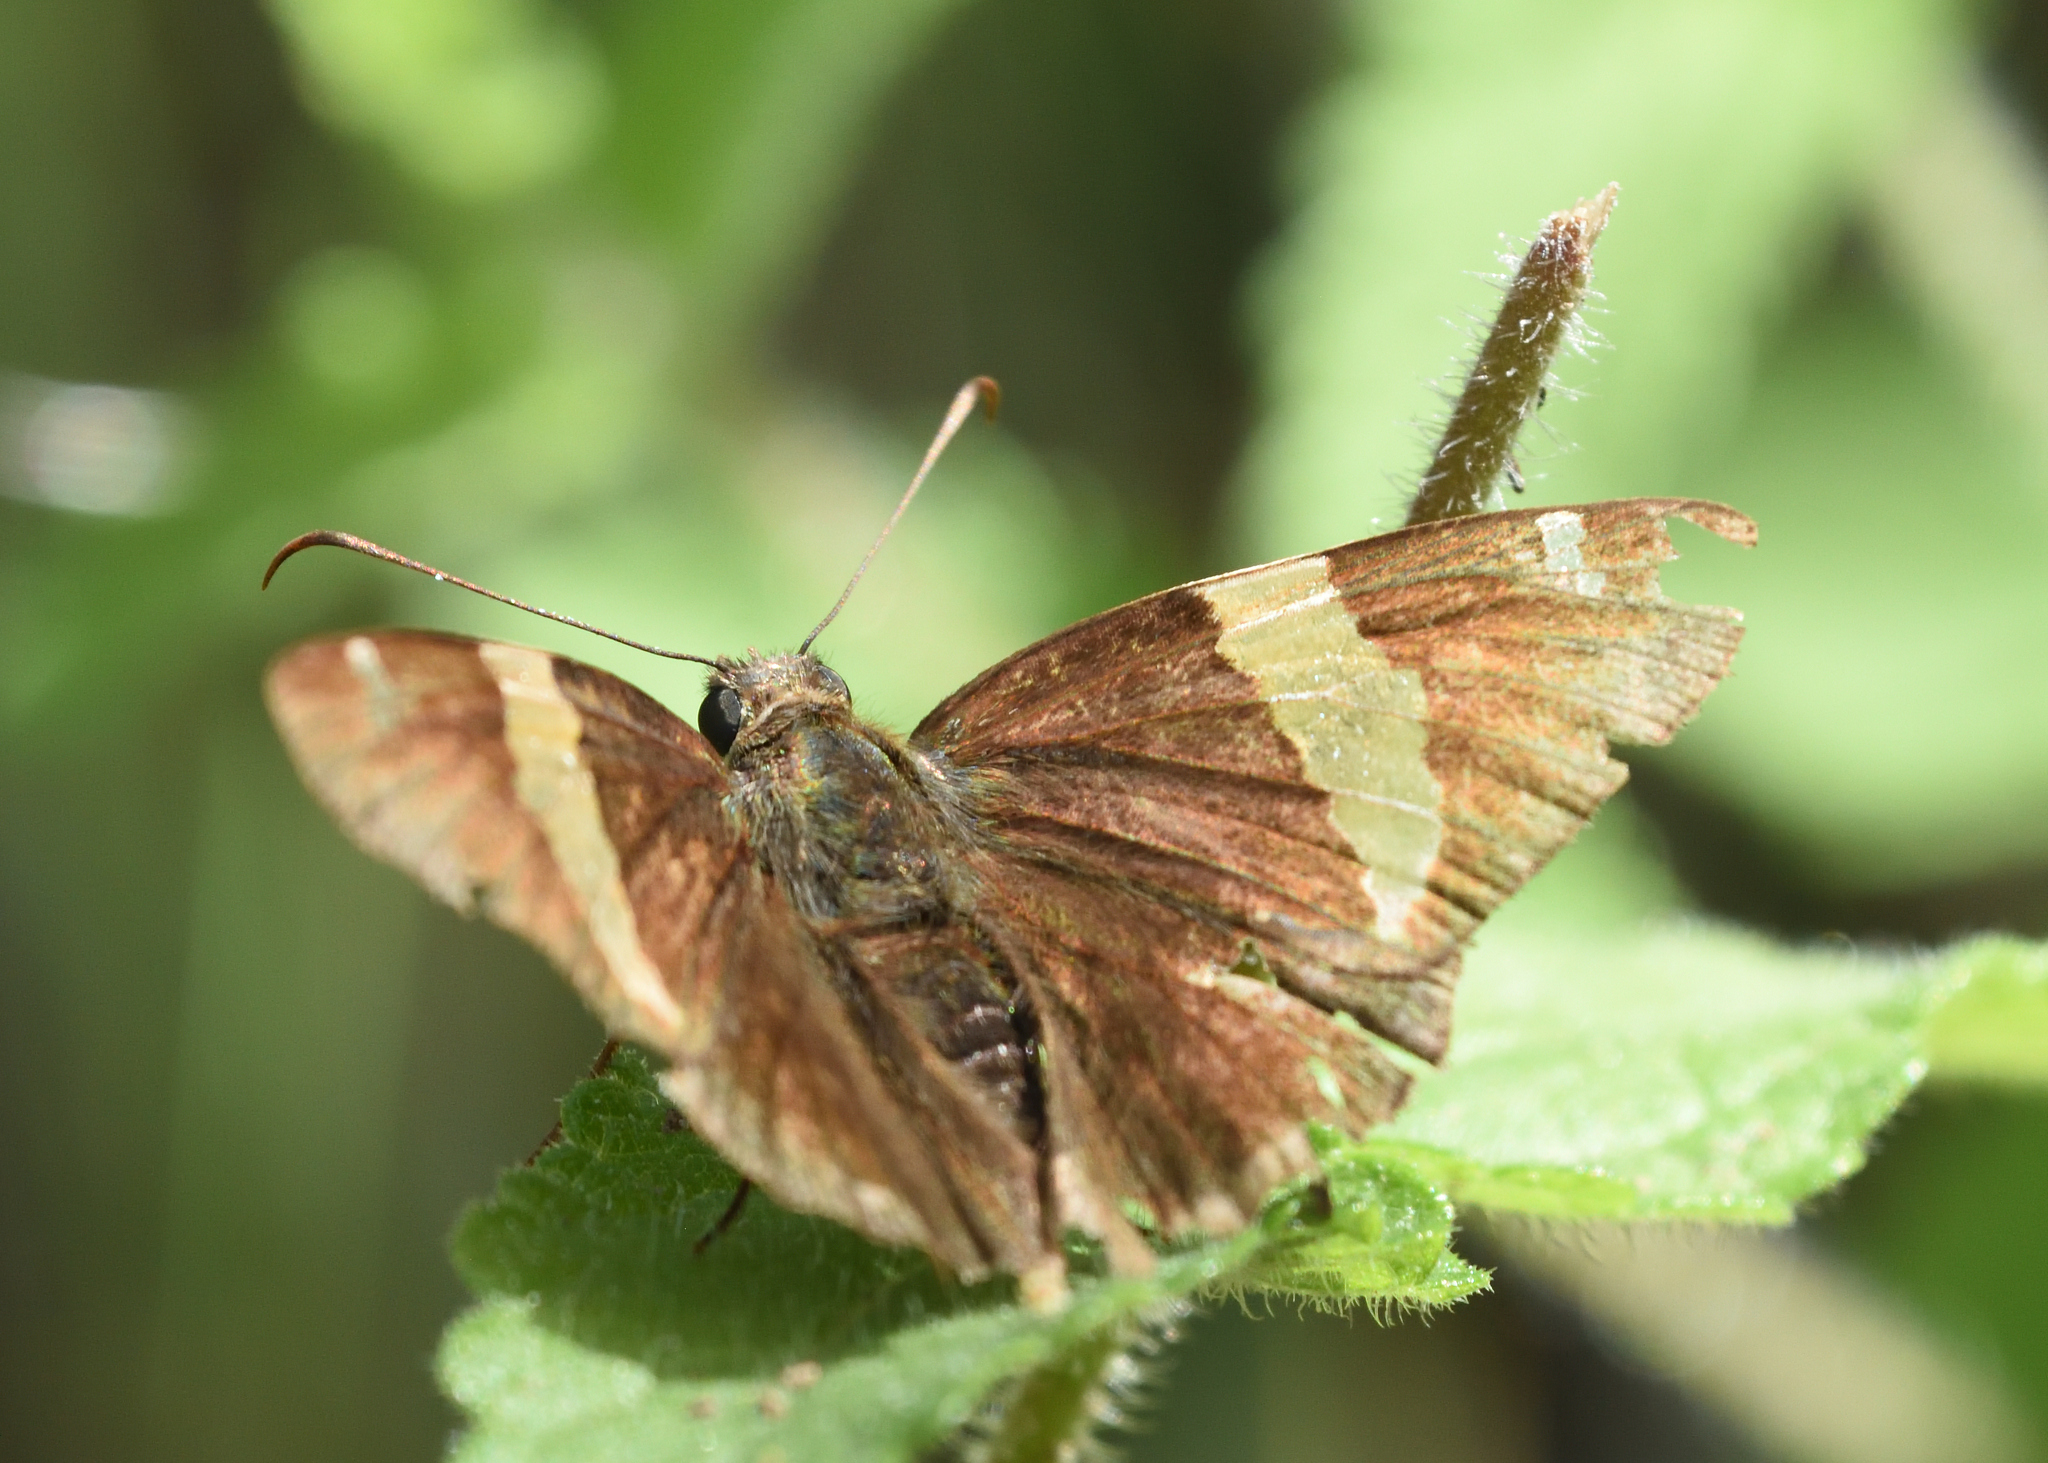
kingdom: Animalia
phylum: Arthropoda
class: Arachnida
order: Scorpiones
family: Bothriuridae
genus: Telegonus
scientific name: Telegonus cellus
